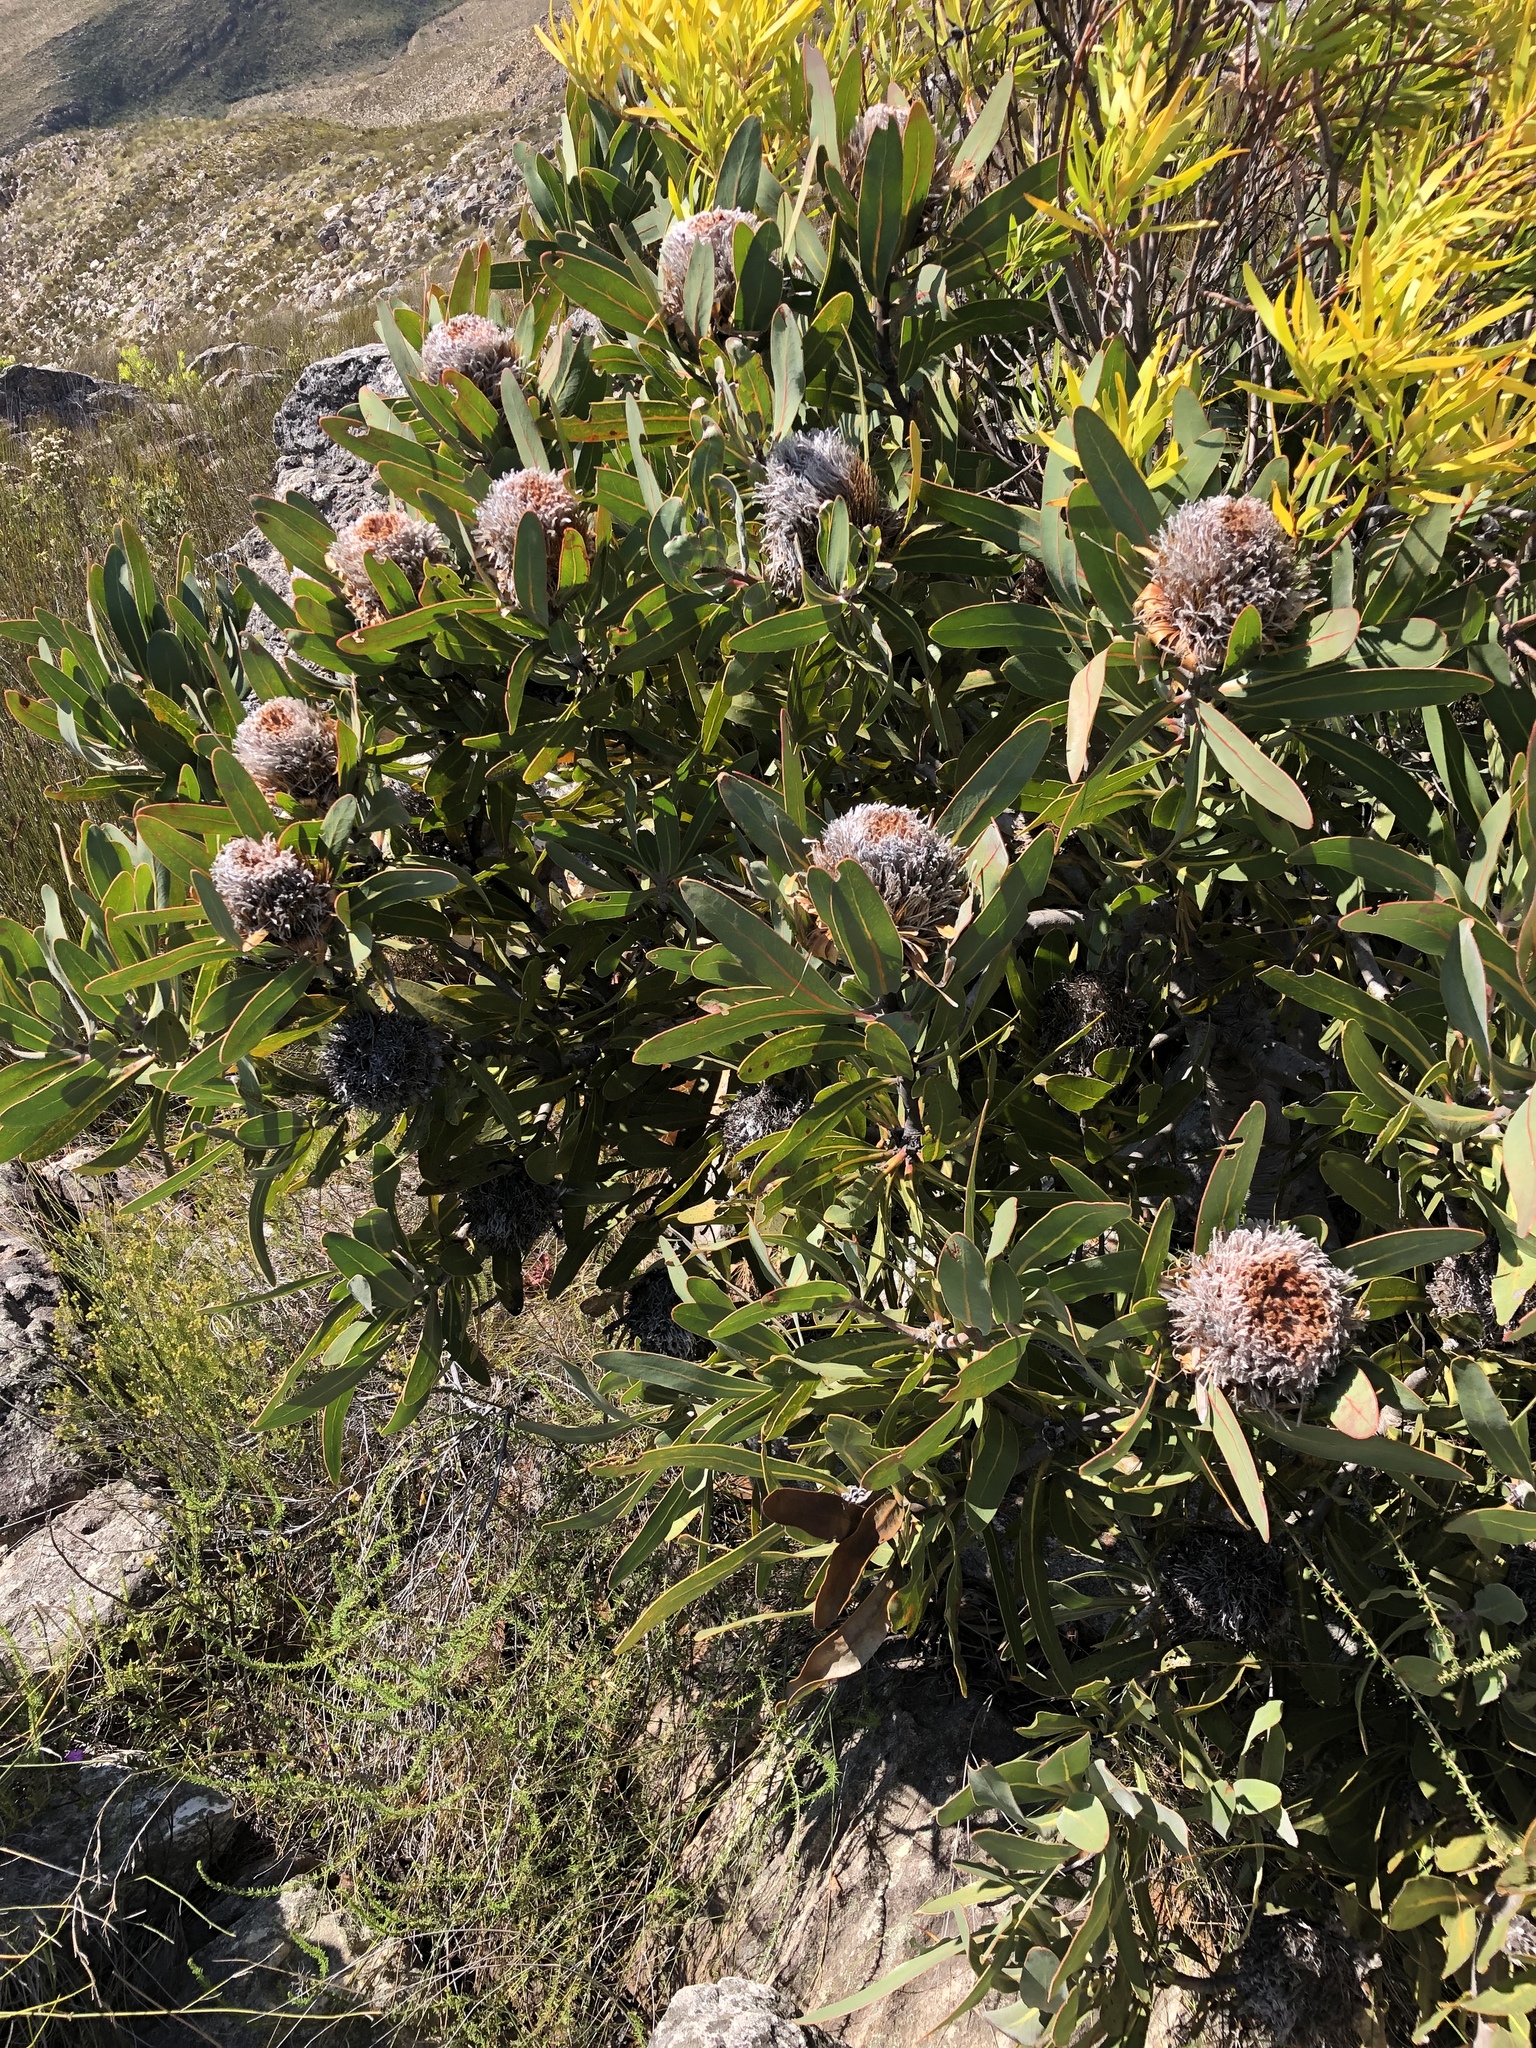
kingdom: Plantae
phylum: Tracheophyta
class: Magnoliopsida
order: Proteales
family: Proteaceae
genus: Protea
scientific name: Protea lorifolia
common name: Strap-leaved protea
